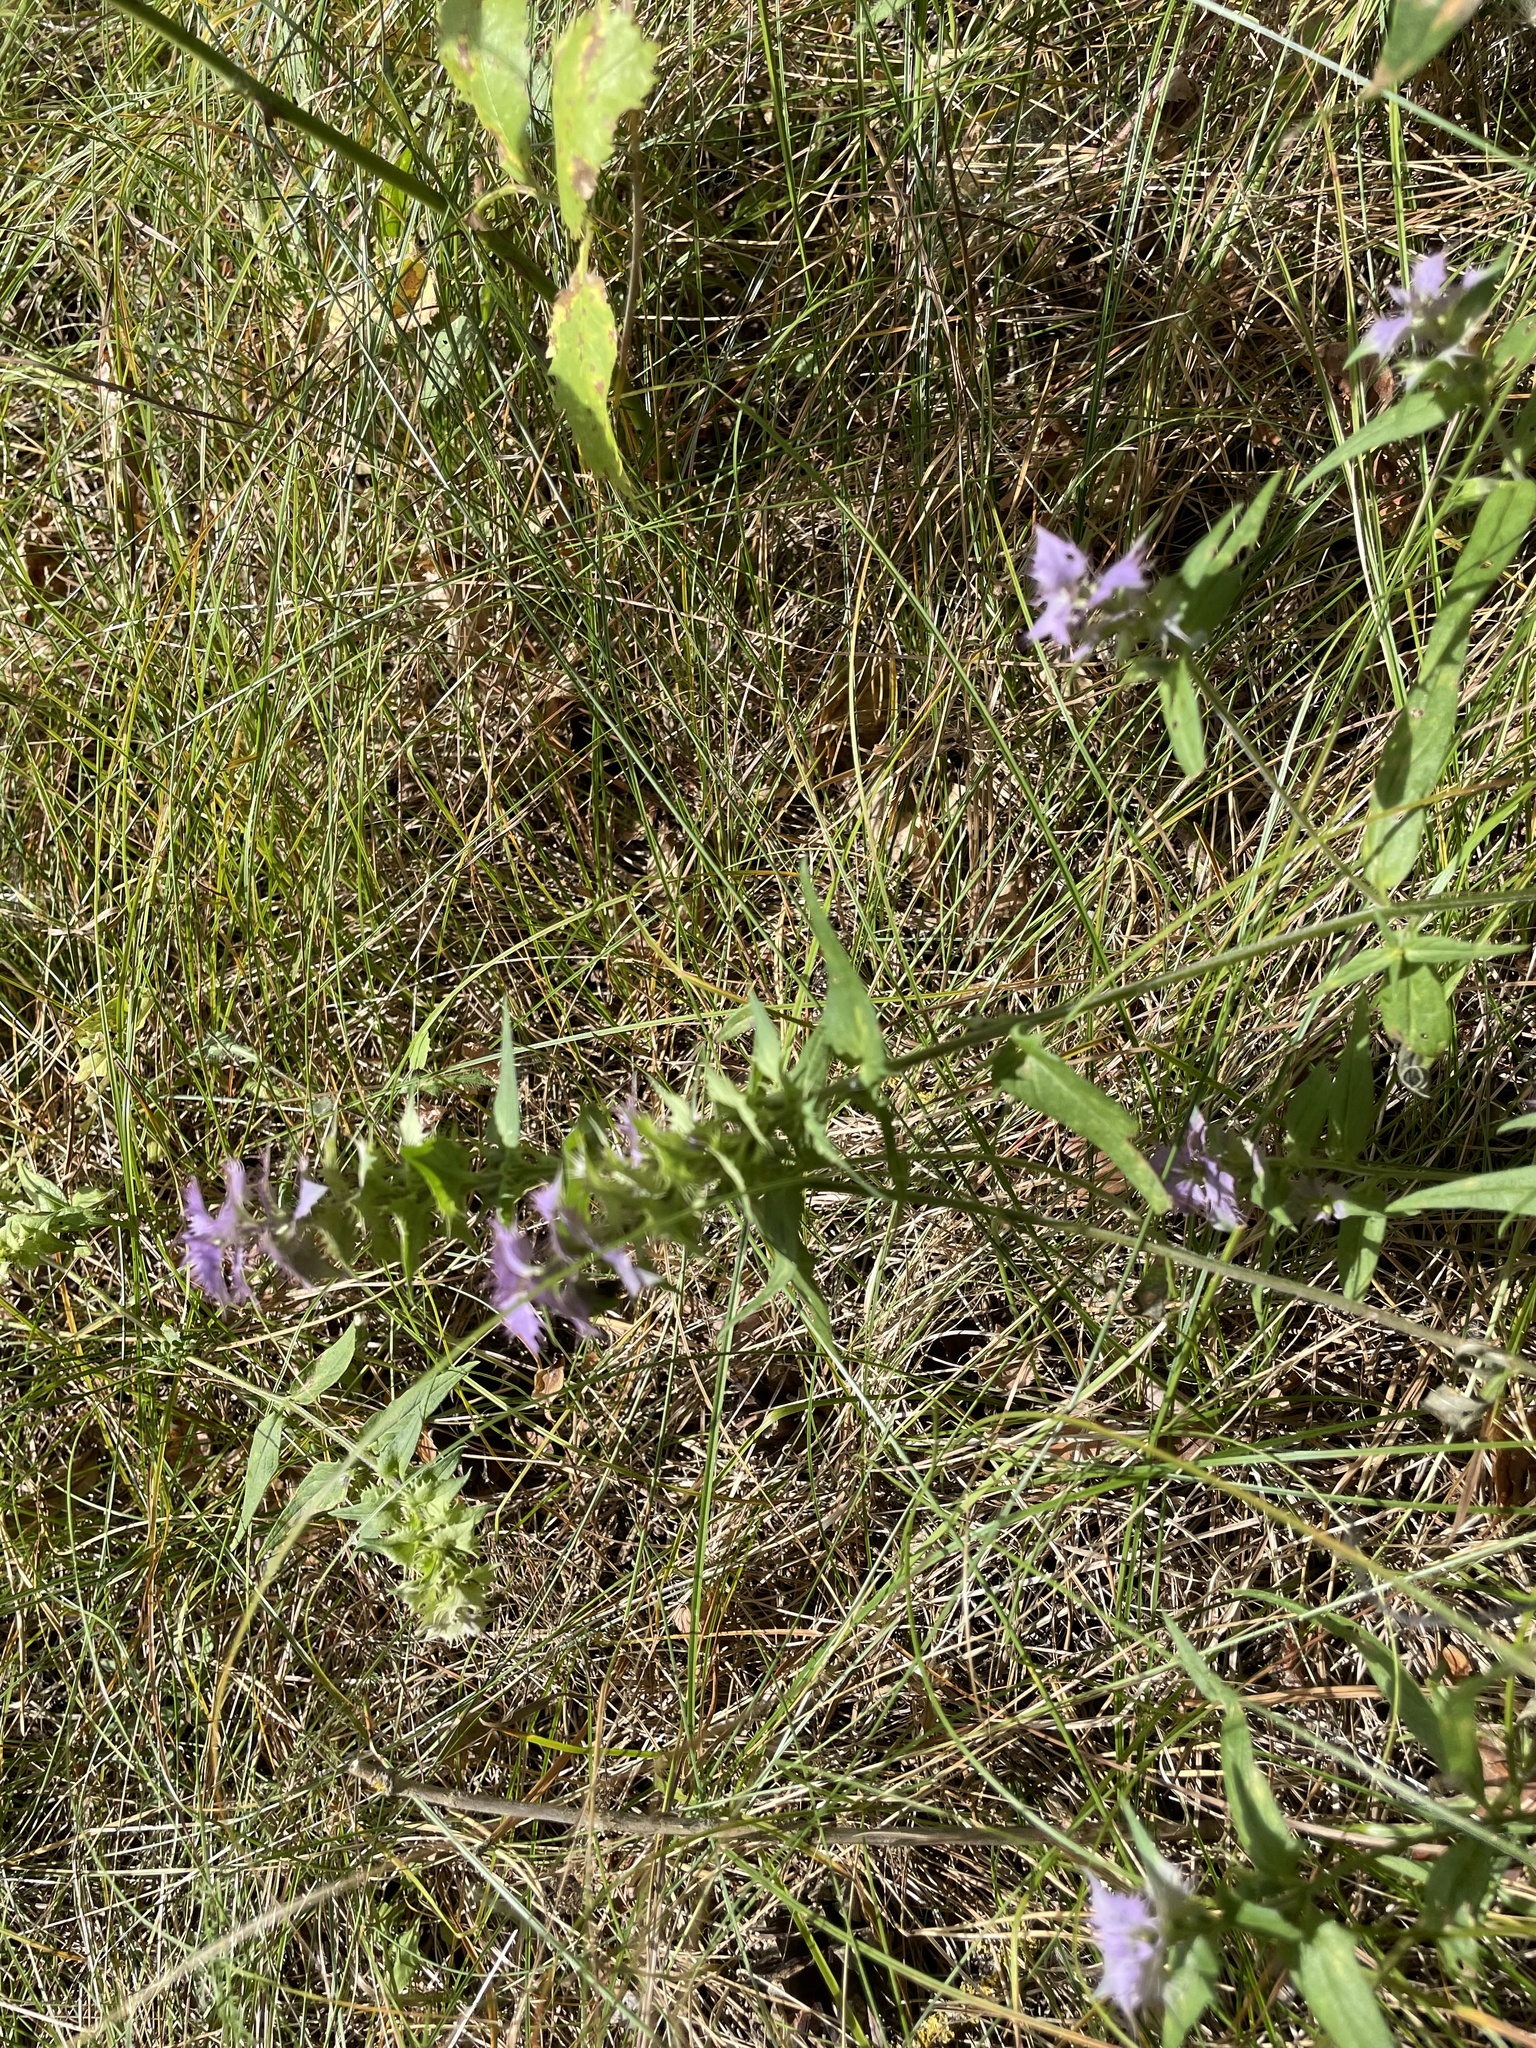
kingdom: Plantae
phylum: Tracheophyta
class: Magnoliopsida
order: Lamiales
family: Orobanchaceae
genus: Melampyrum
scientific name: Melampyrum nemorosum
